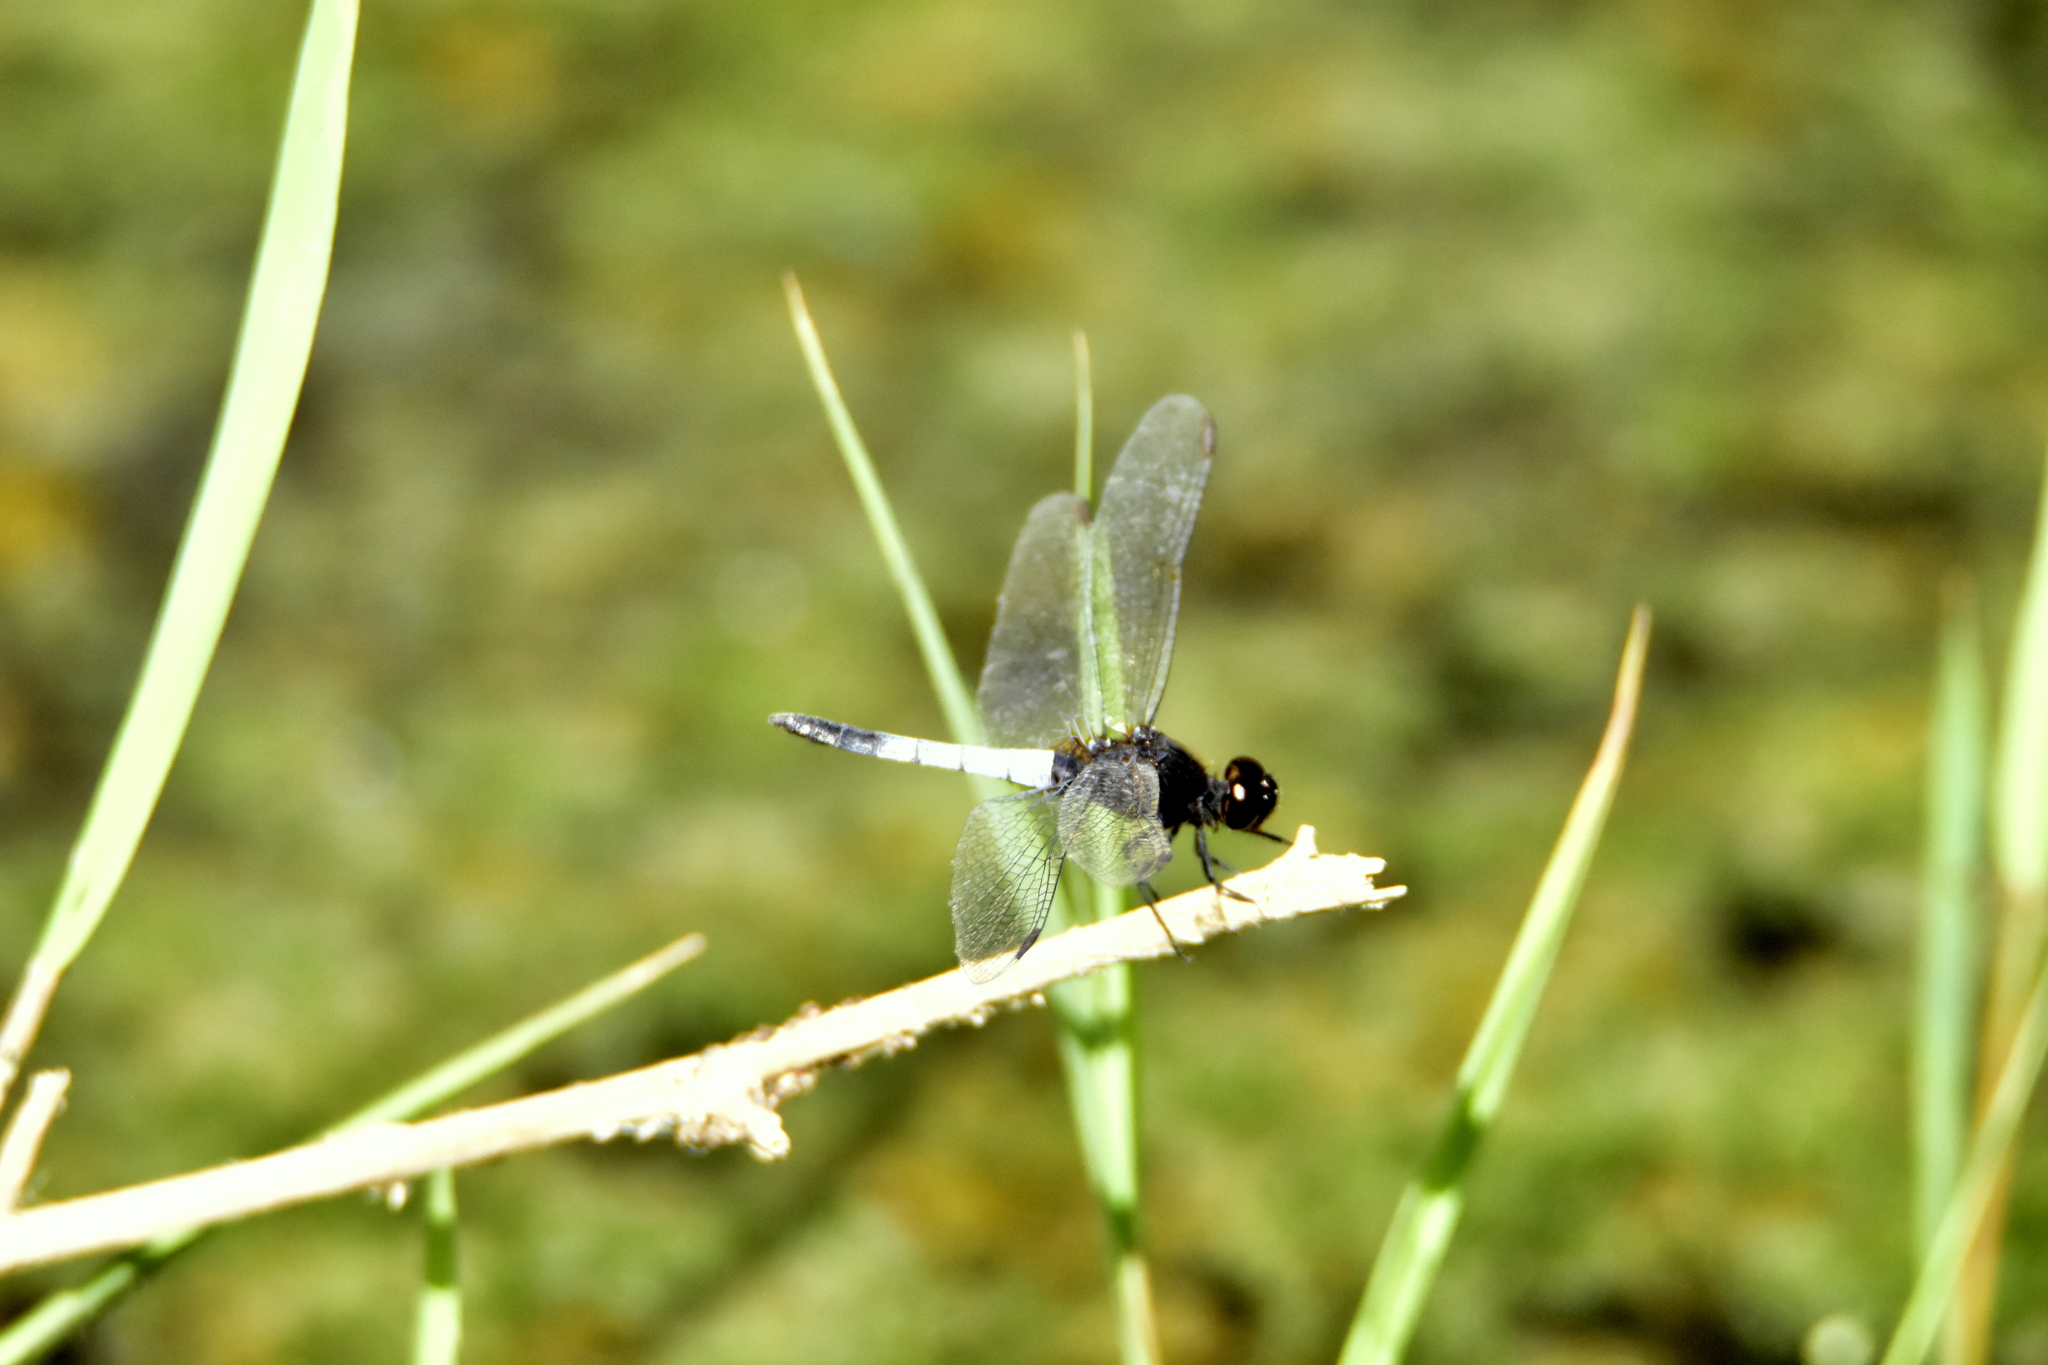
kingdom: Animalia
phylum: Arthropoda
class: Insecta
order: Odonata
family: Libellulidae
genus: Erythrodiplax
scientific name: Erythrodiplax basifusca
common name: Plateau dragonlet
